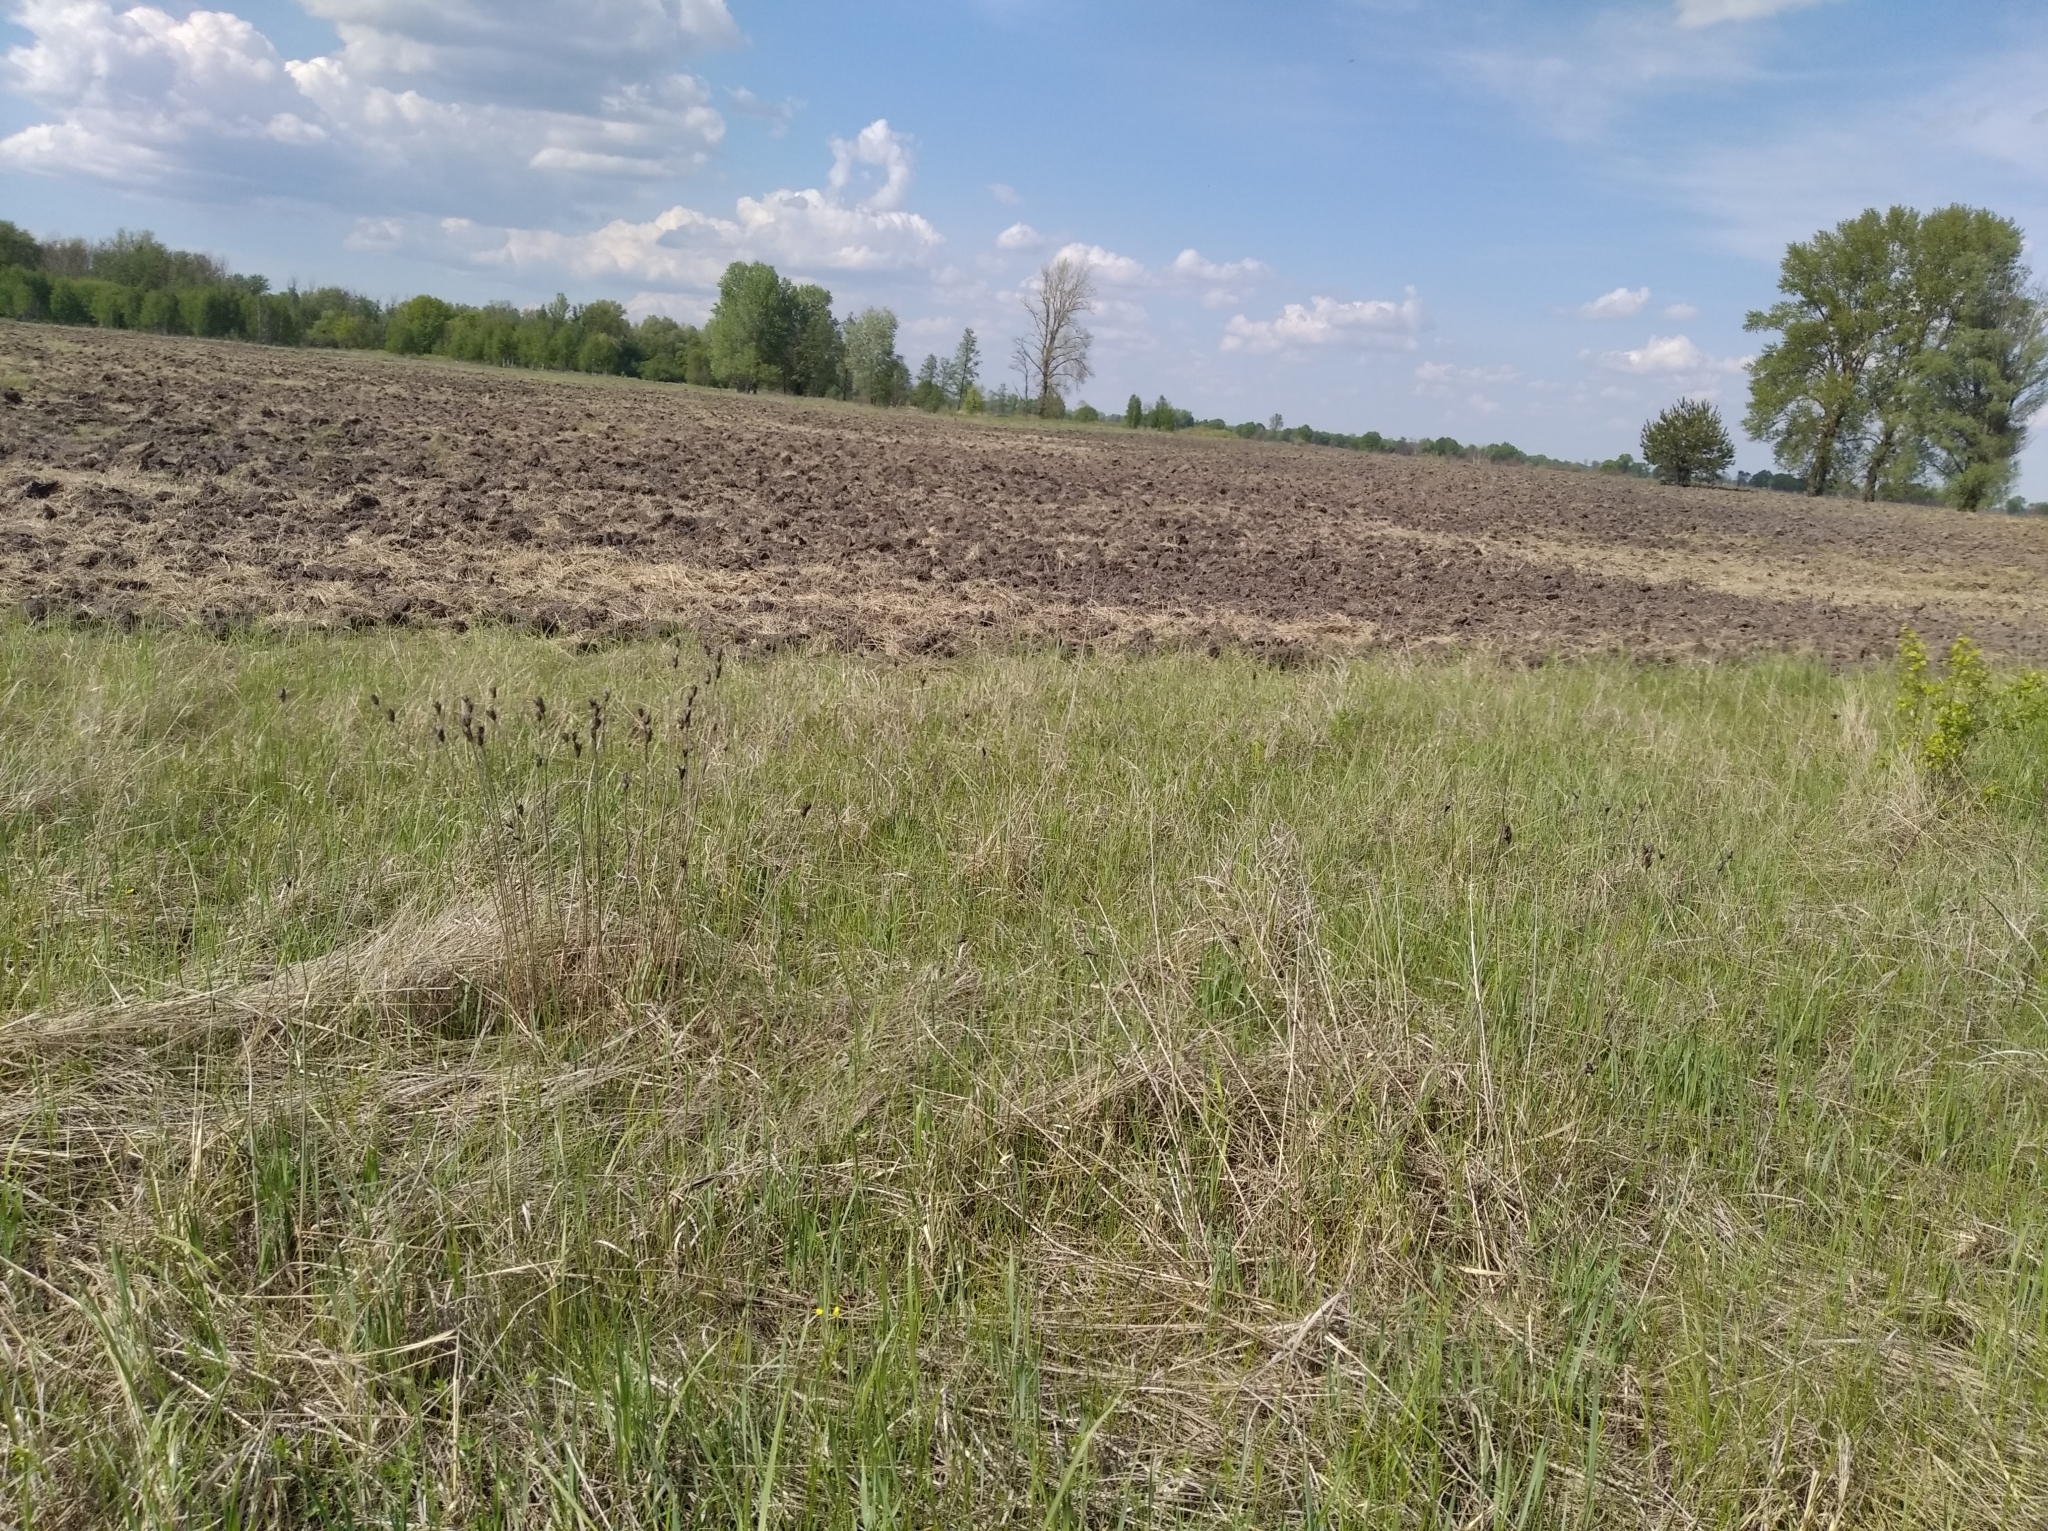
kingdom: Plantae
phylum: Tracheophyta
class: Liliopsida
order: Asparagales
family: Iridaceae
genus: Iris
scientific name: Iris sibirica
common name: Siberian iris
